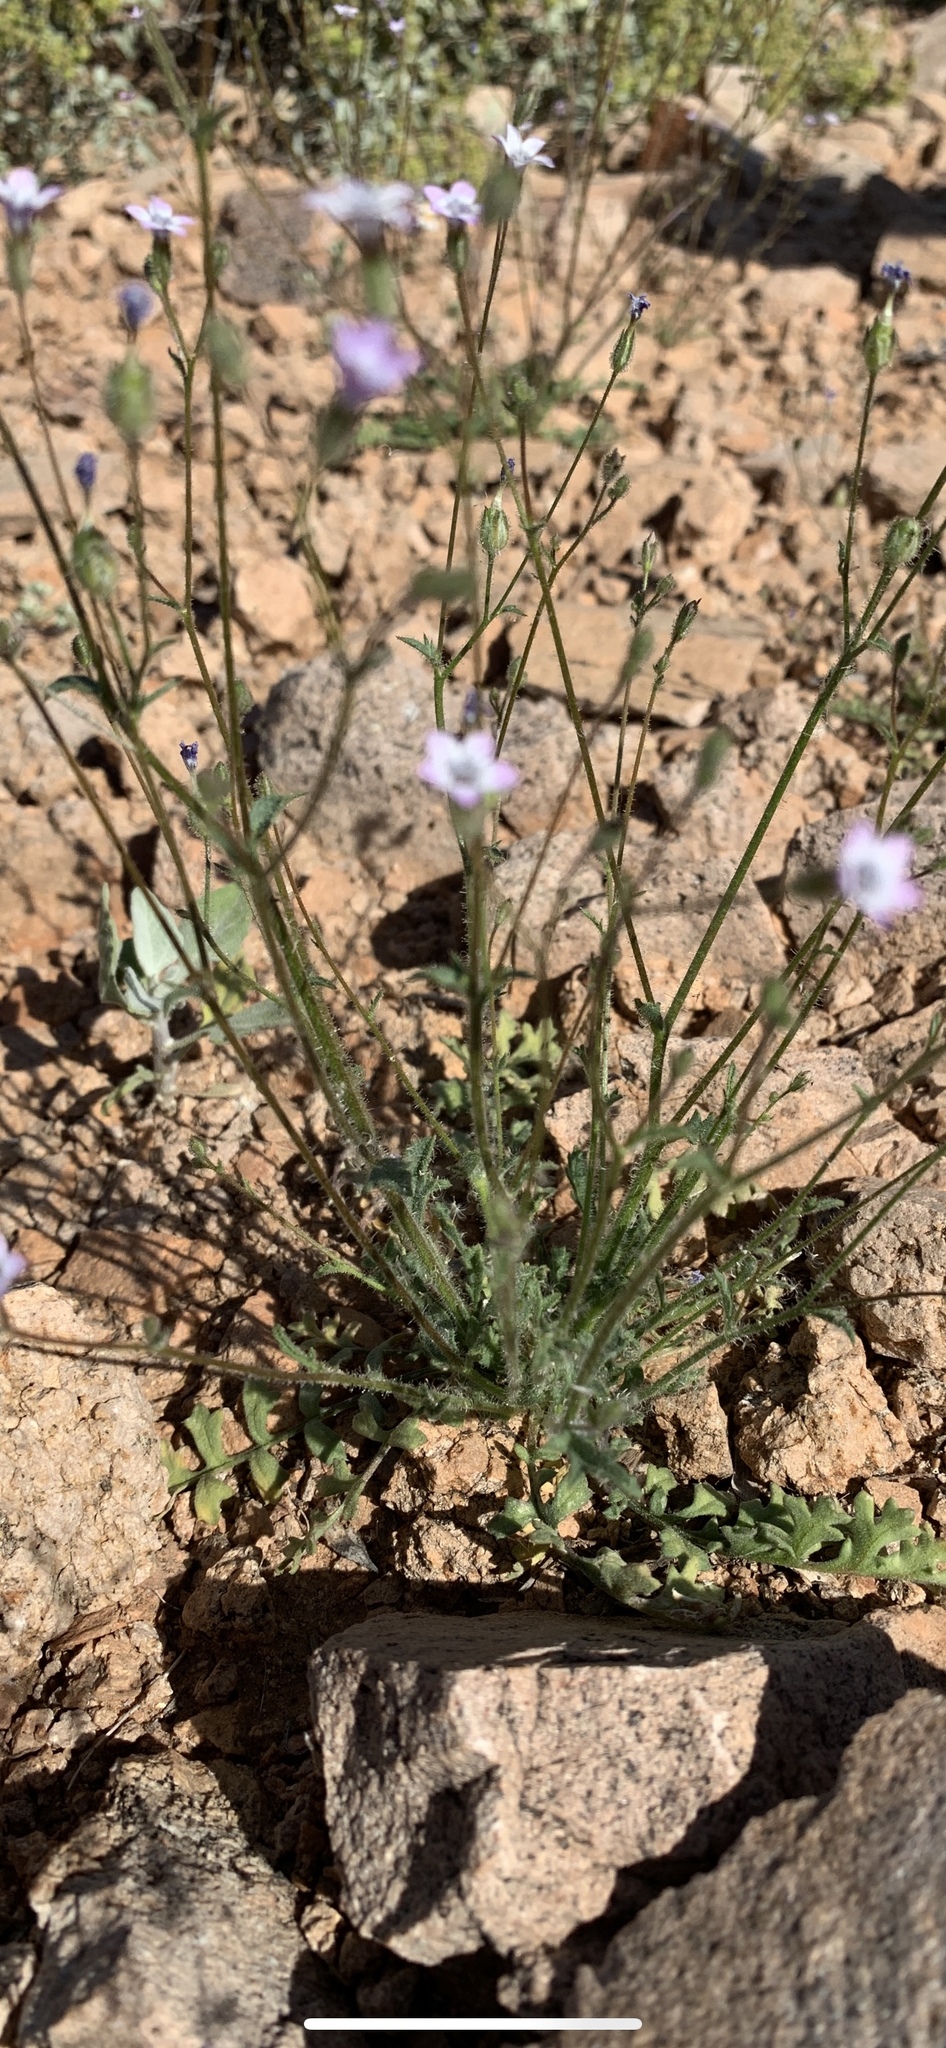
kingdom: Plantae
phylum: Tracheophyta
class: Magnoliopsida
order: Ericales
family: Polemoniaceae
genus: Gilia
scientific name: Gilia stellata
